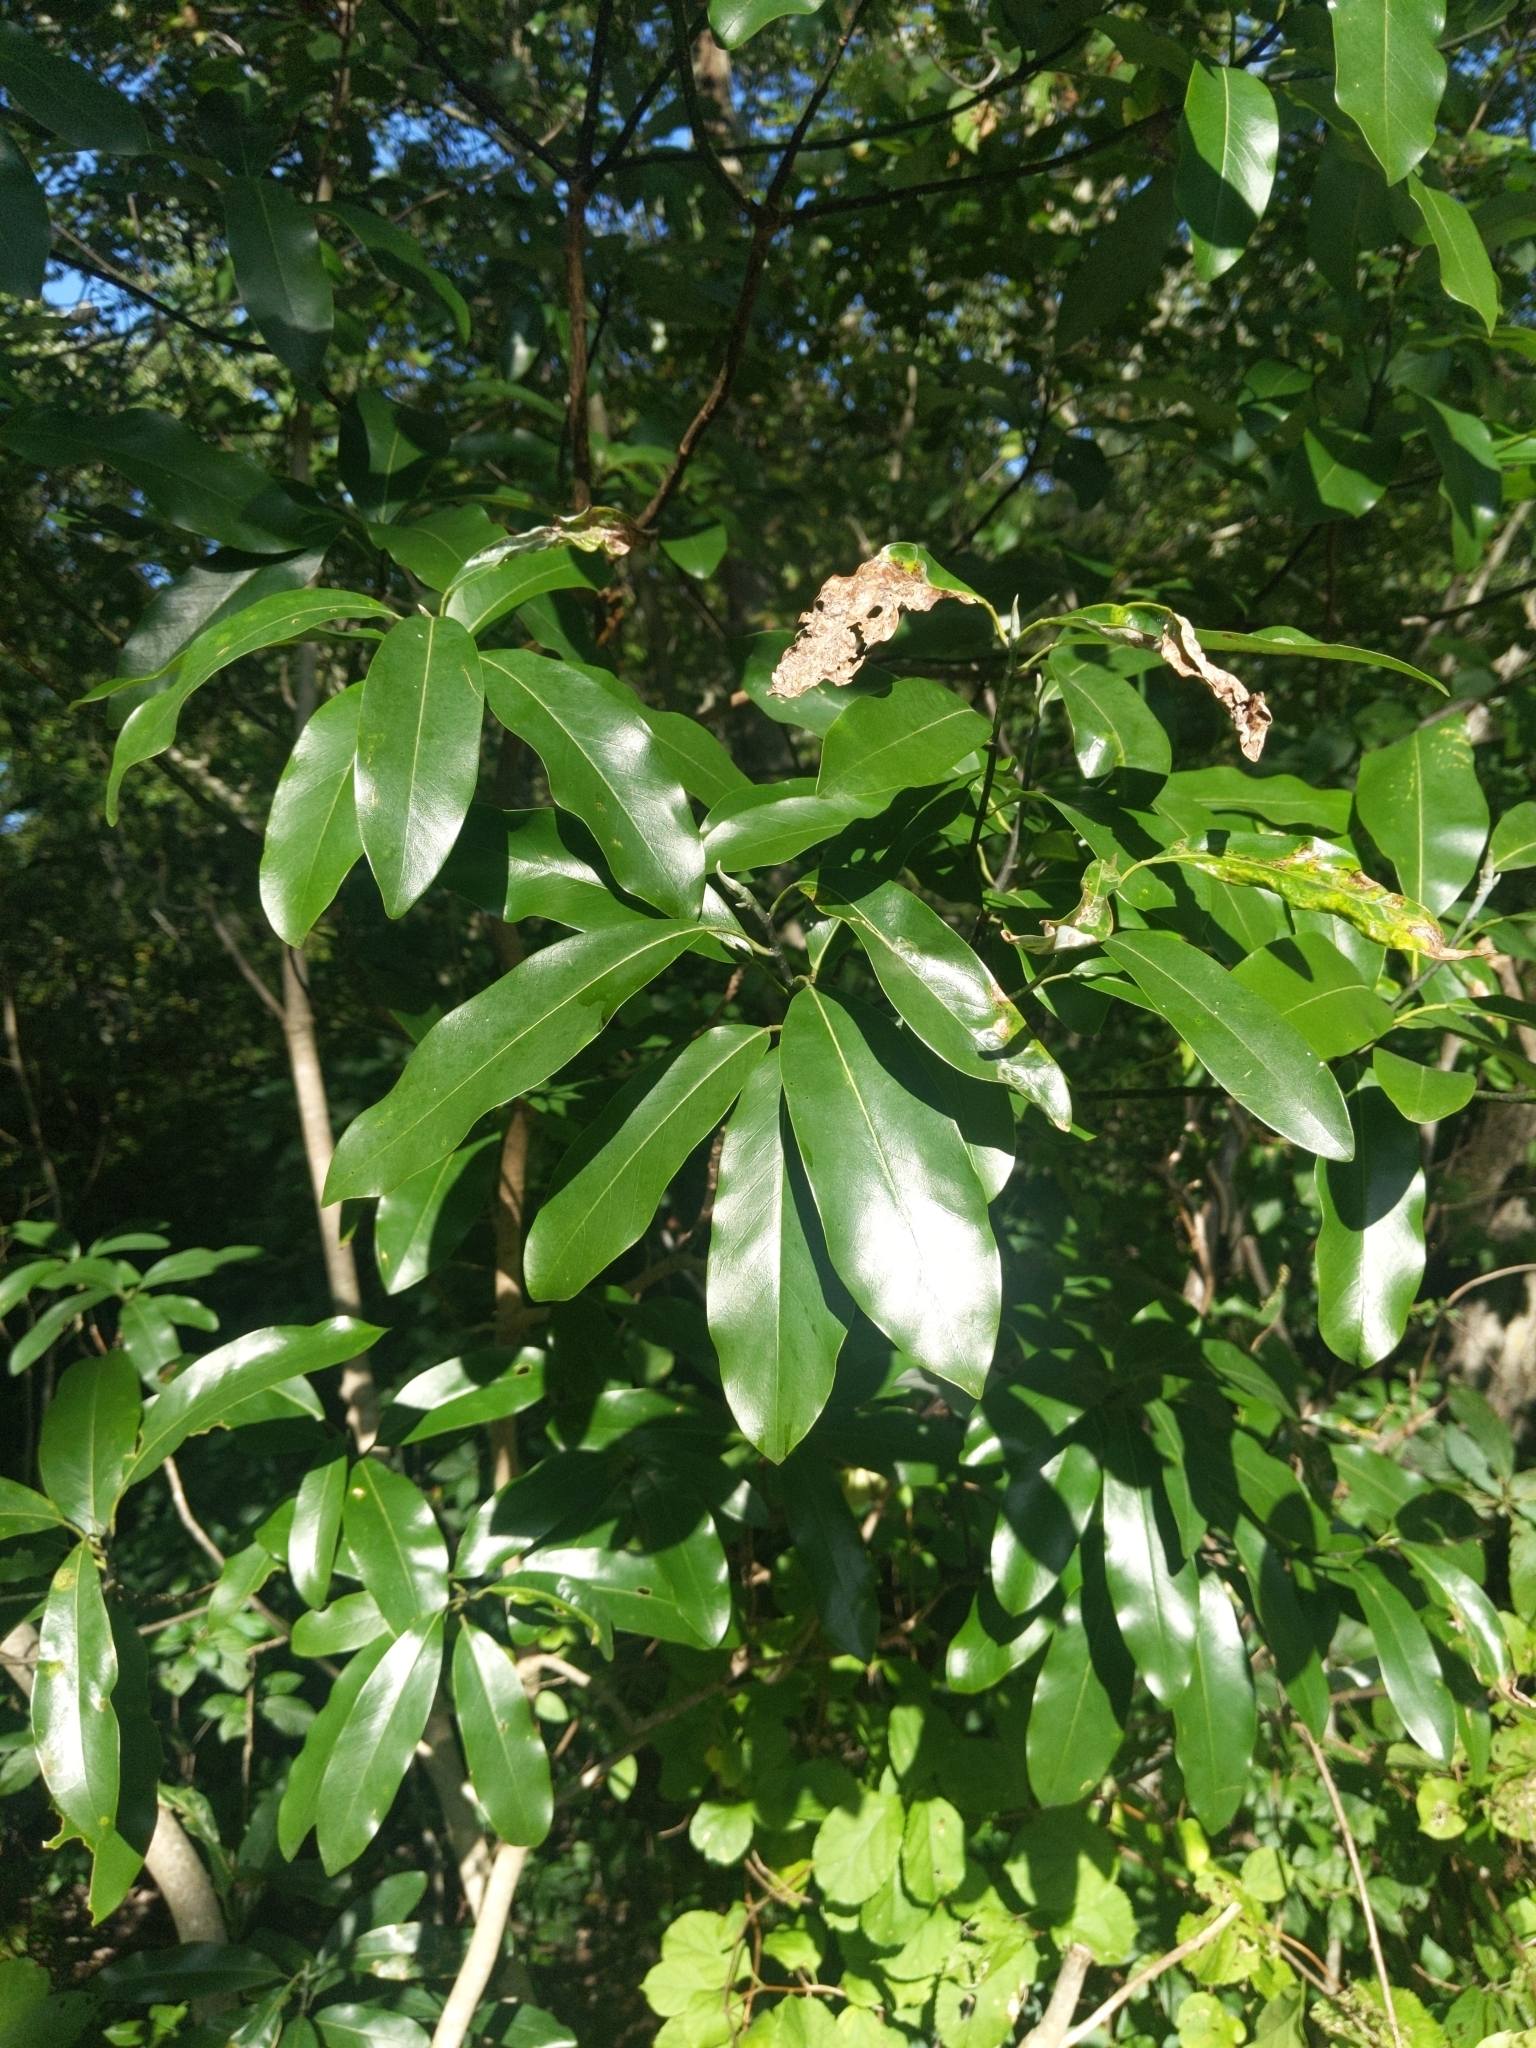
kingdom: Plantae
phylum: Tracheophyta
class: Magnoliopsida
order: Magnoliales
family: Magnoliaceae
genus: Magnolia
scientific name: Magnolia virginiana
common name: Swamp bay
